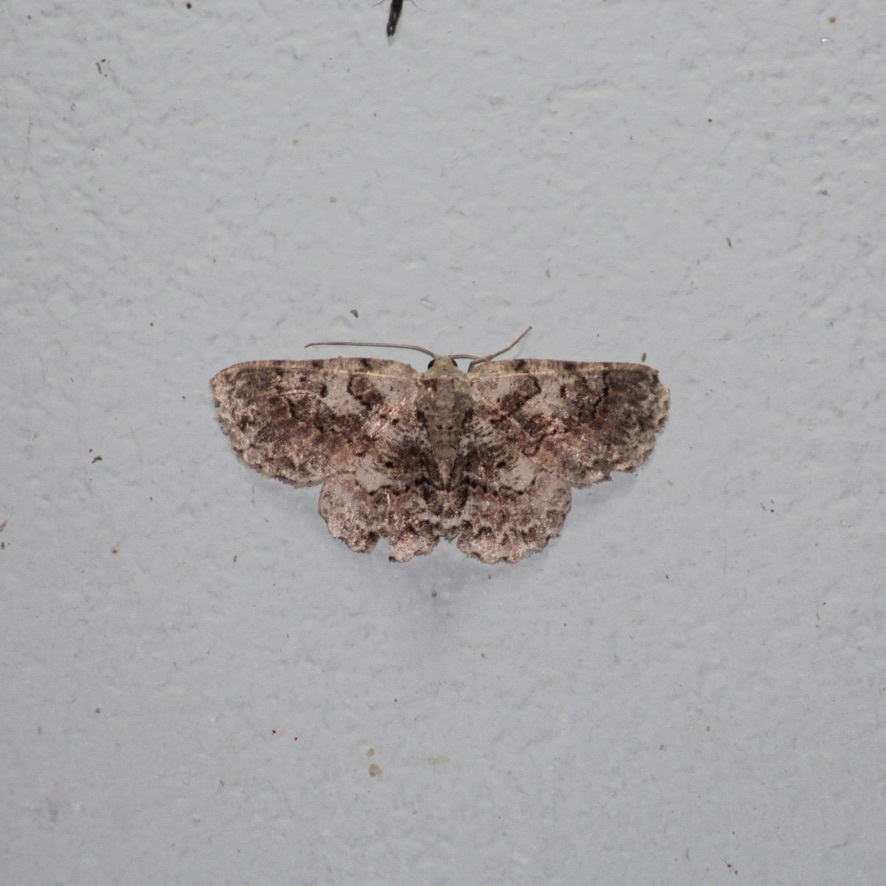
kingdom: Animalia
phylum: Arthropoda
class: Insecta
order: Lepidoptera
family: Geometridae
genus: Bryoptera
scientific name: Bryoptera hypomelas
